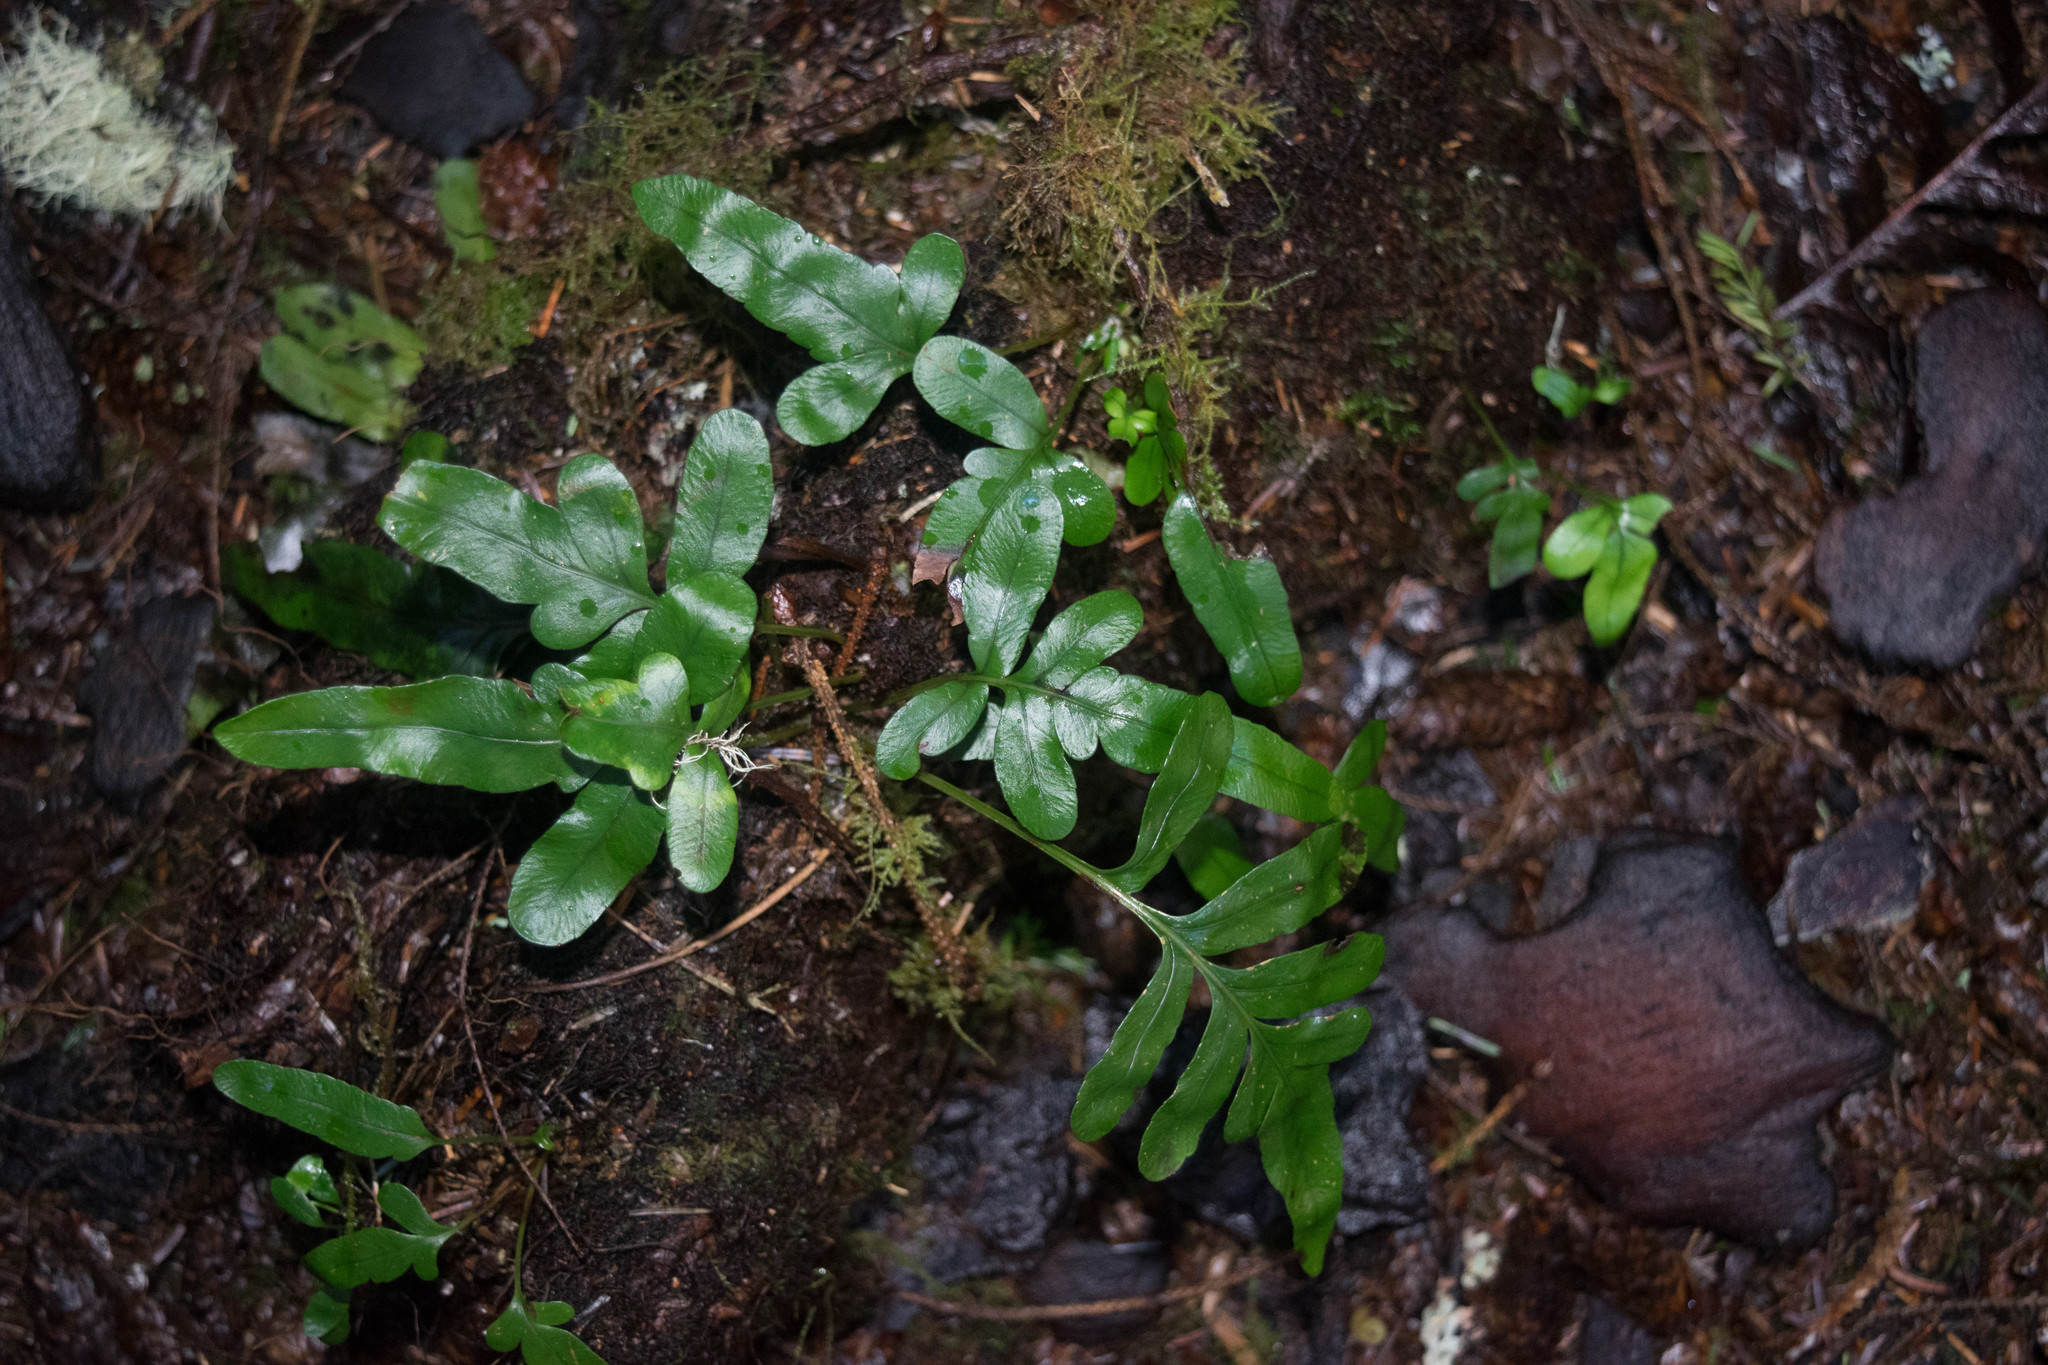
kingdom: Plantae
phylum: Tracheophyta
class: Polypodiopsida
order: Polypodiales
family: Polypodiaceae
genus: Polypodium
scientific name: Polypodium scouleri
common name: Scouler's polypody
